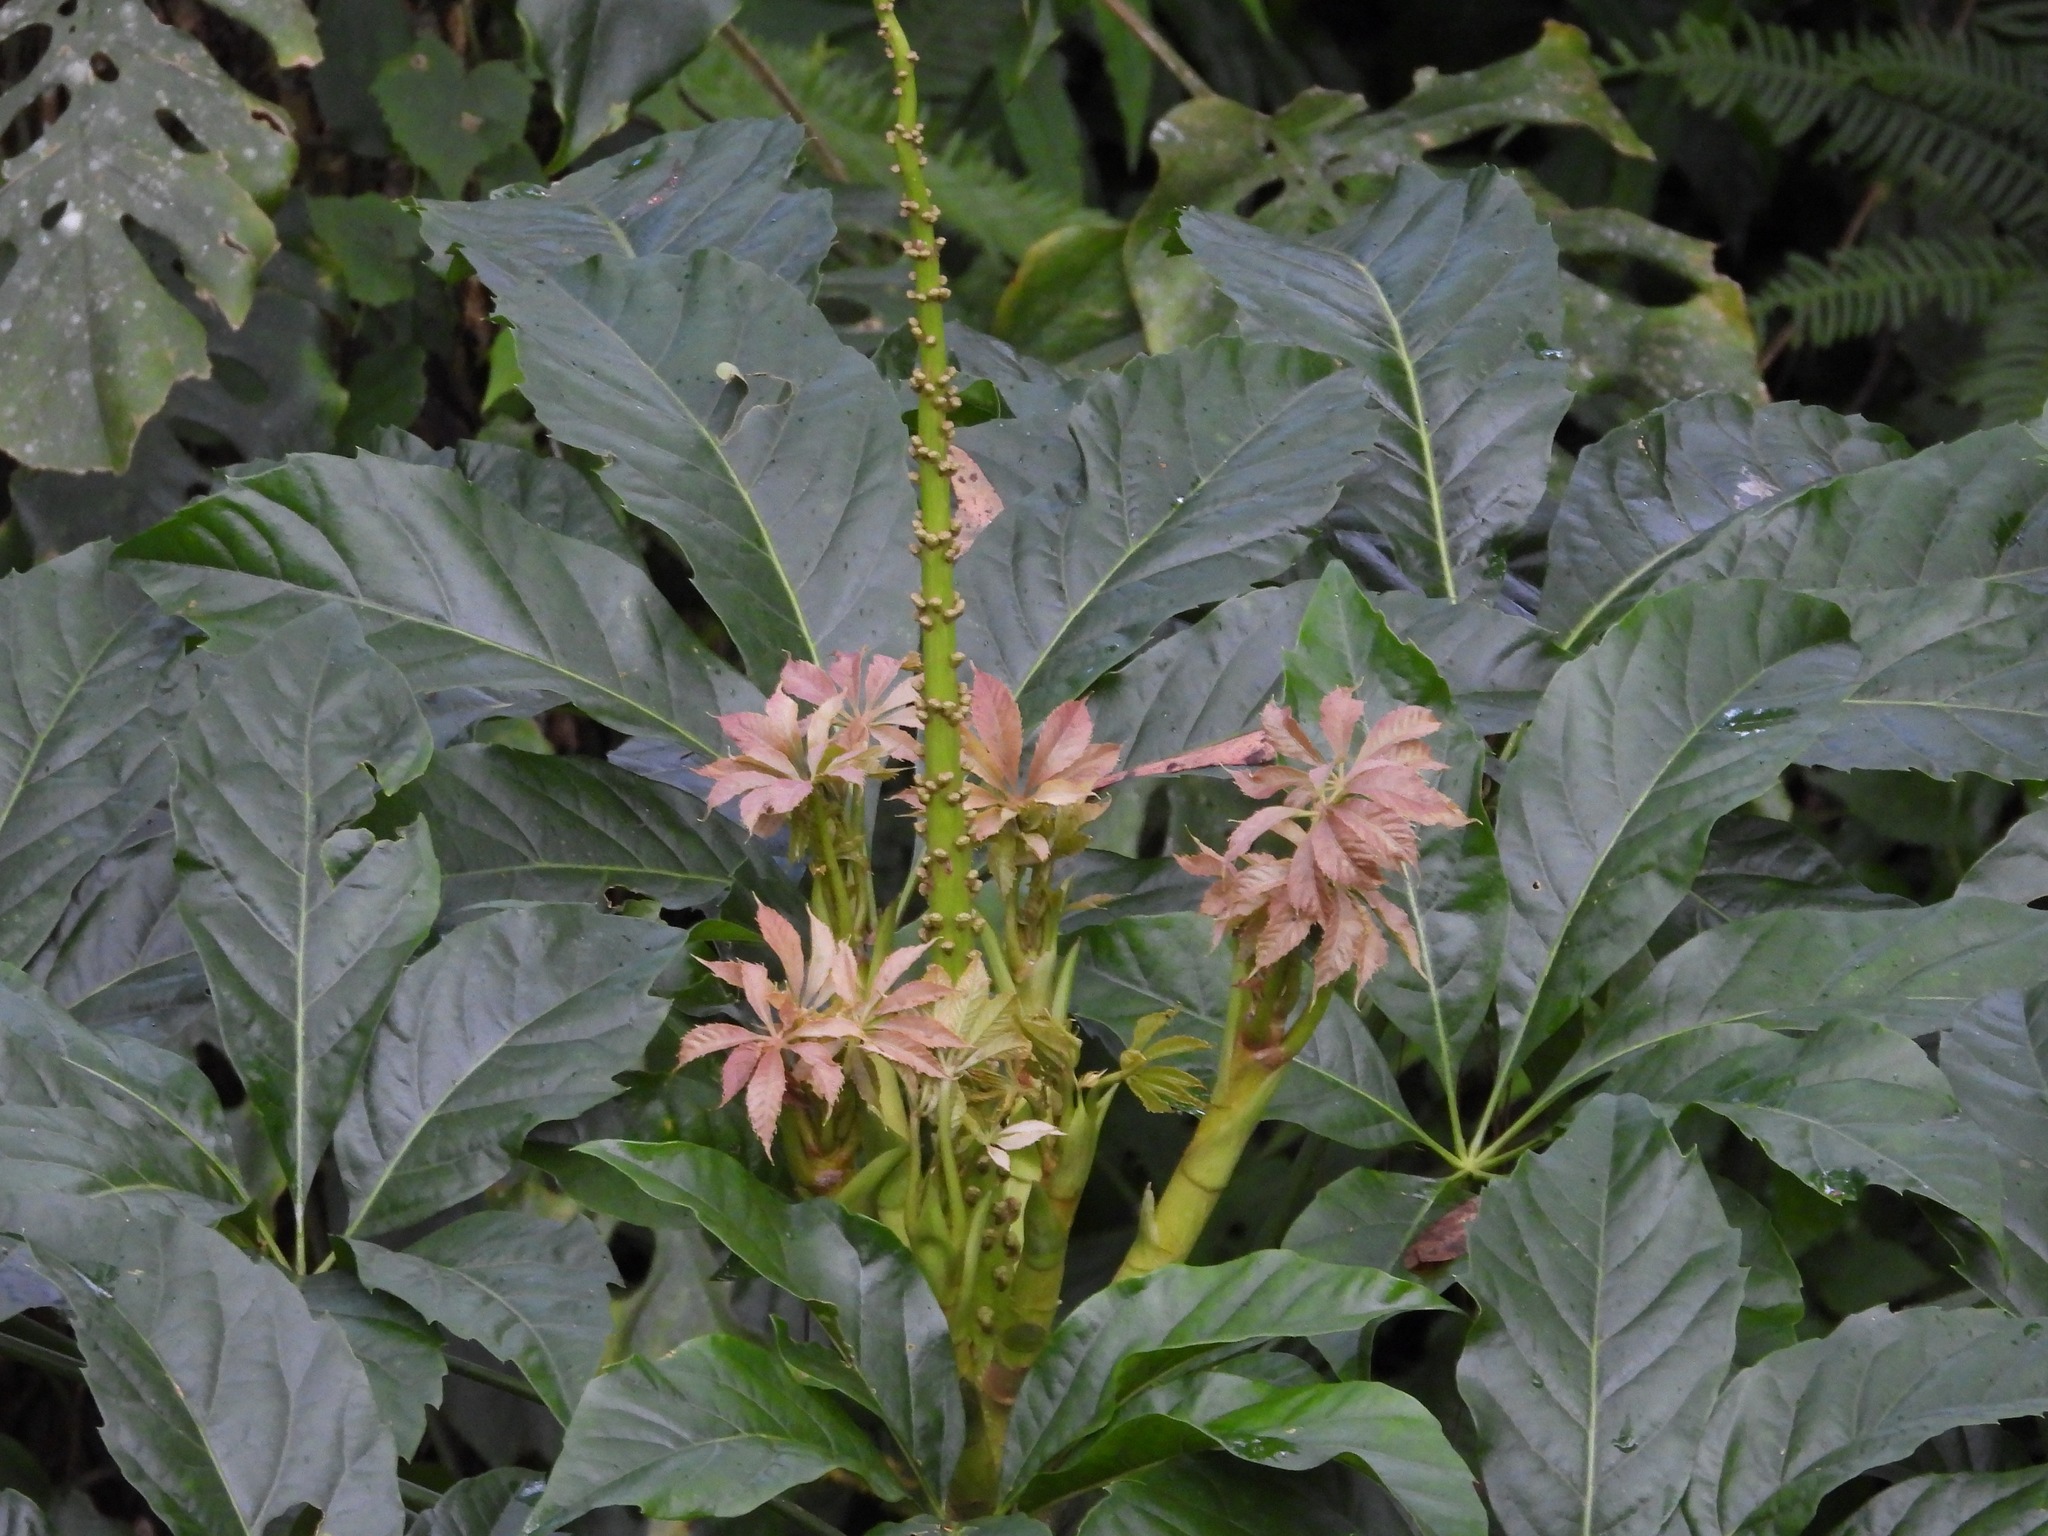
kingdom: Plantae
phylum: Tracheophyta
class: Magnoliopsida
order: Apiales
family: Araliaceae
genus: Oreopanax
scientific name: Oreopanax xalapensis
